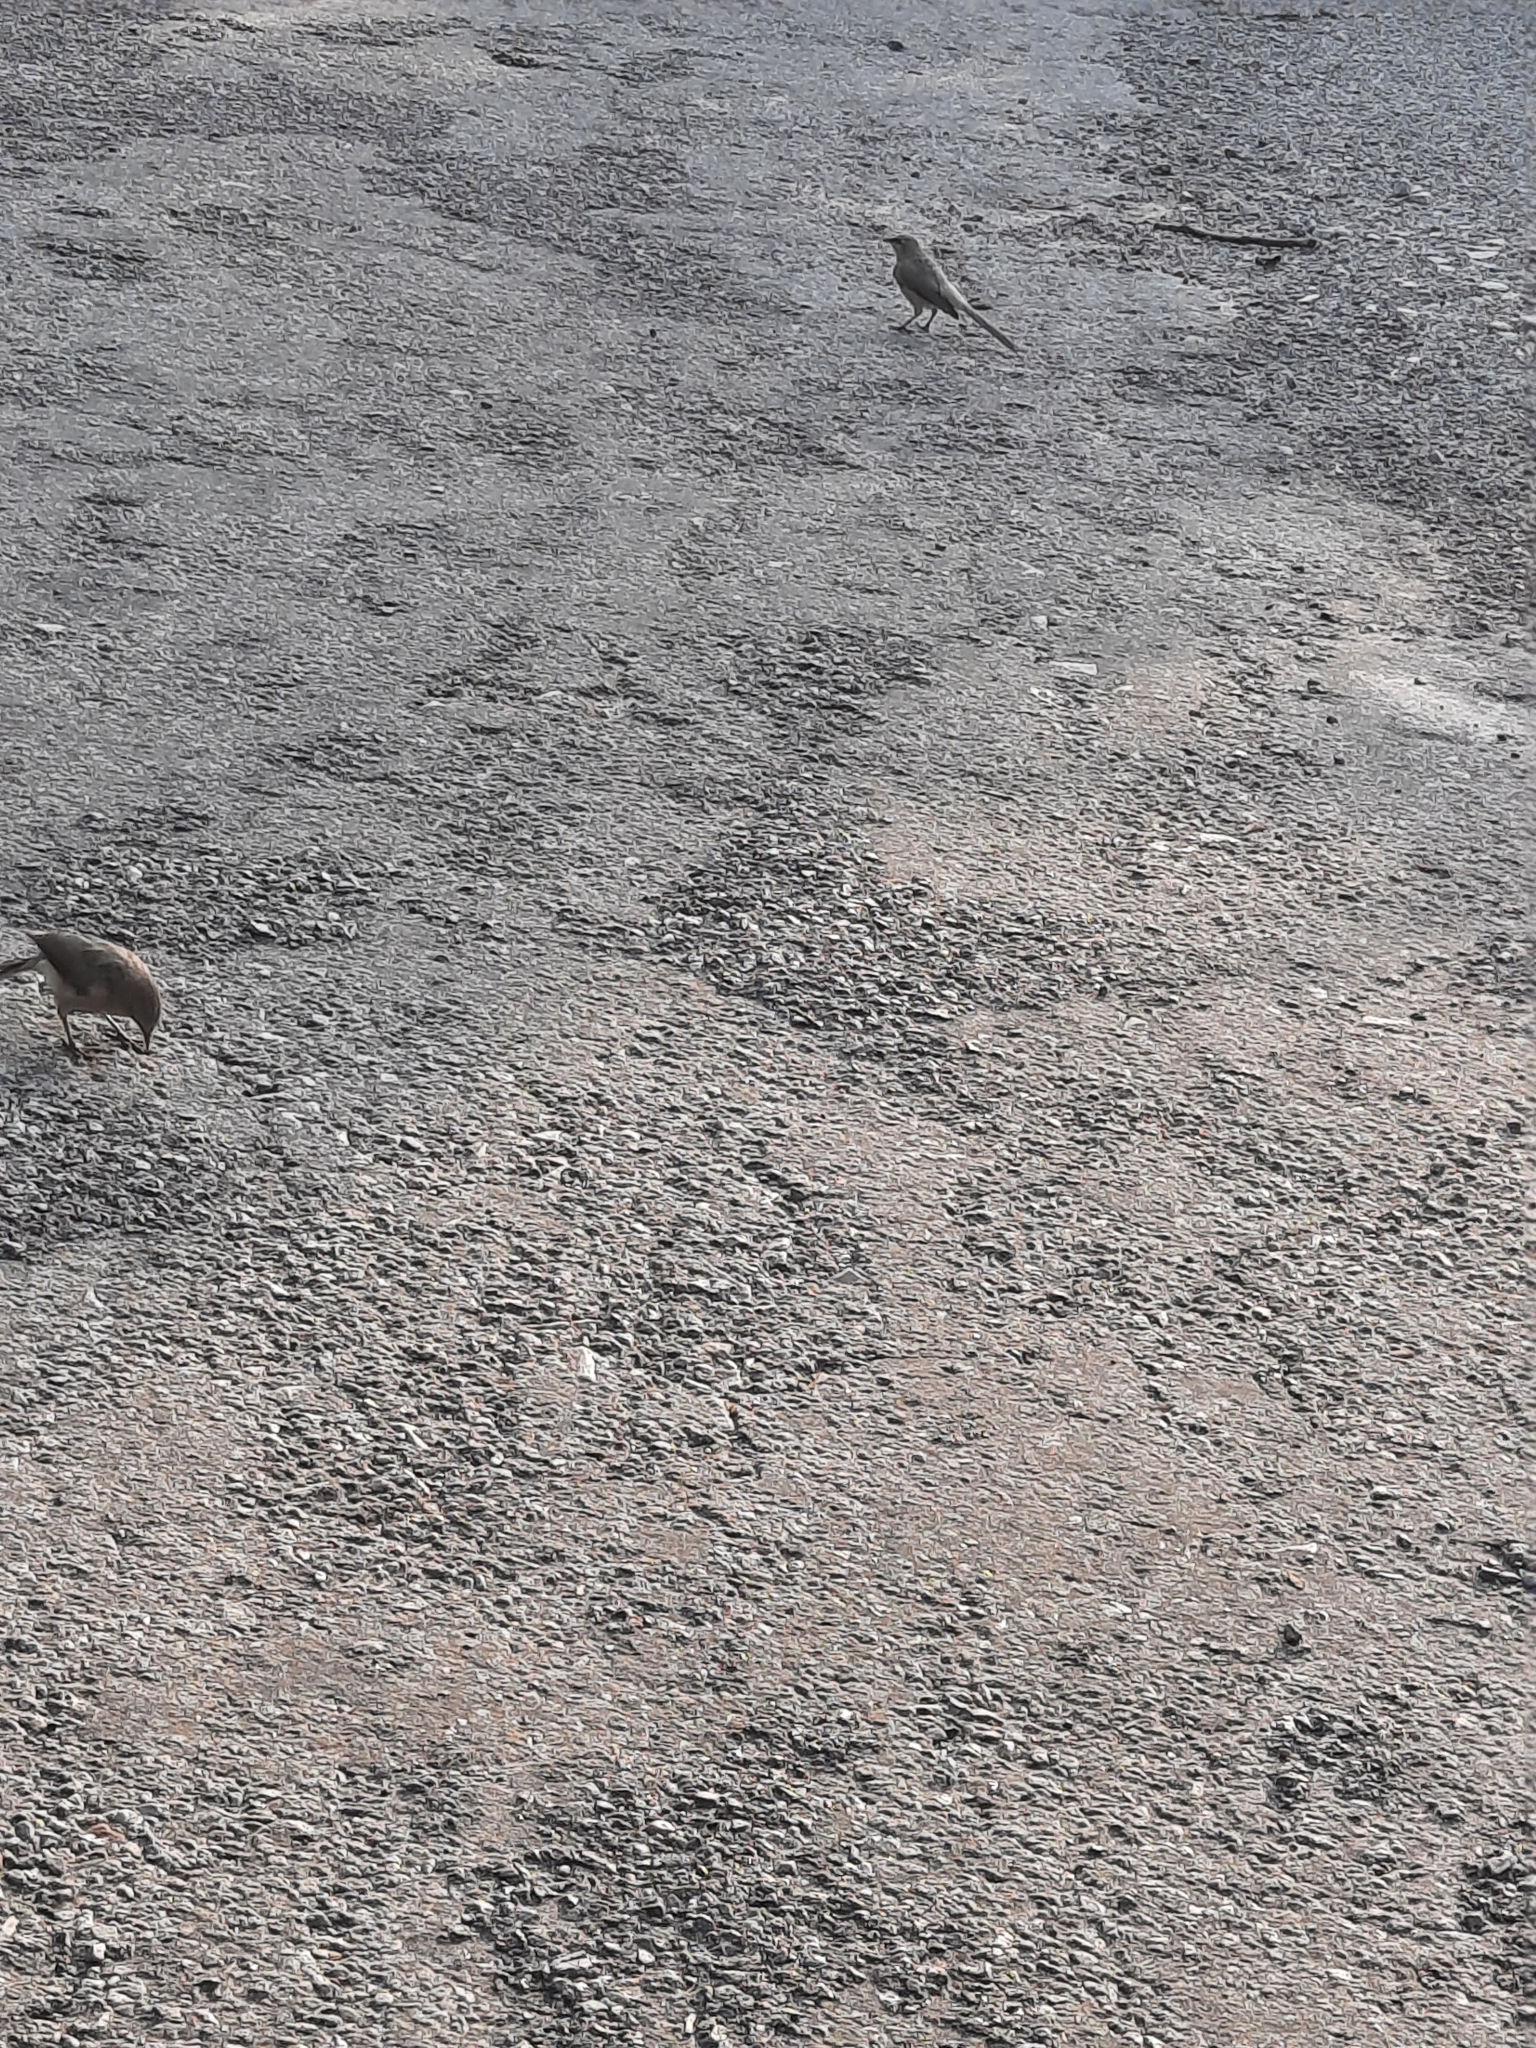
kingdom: Animalia
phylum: Chordata
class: Aves
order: Passeriformes
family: Leiothrichidae
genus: Turdoides
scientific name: Turdoides malcolmi
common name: Large grey babbler
